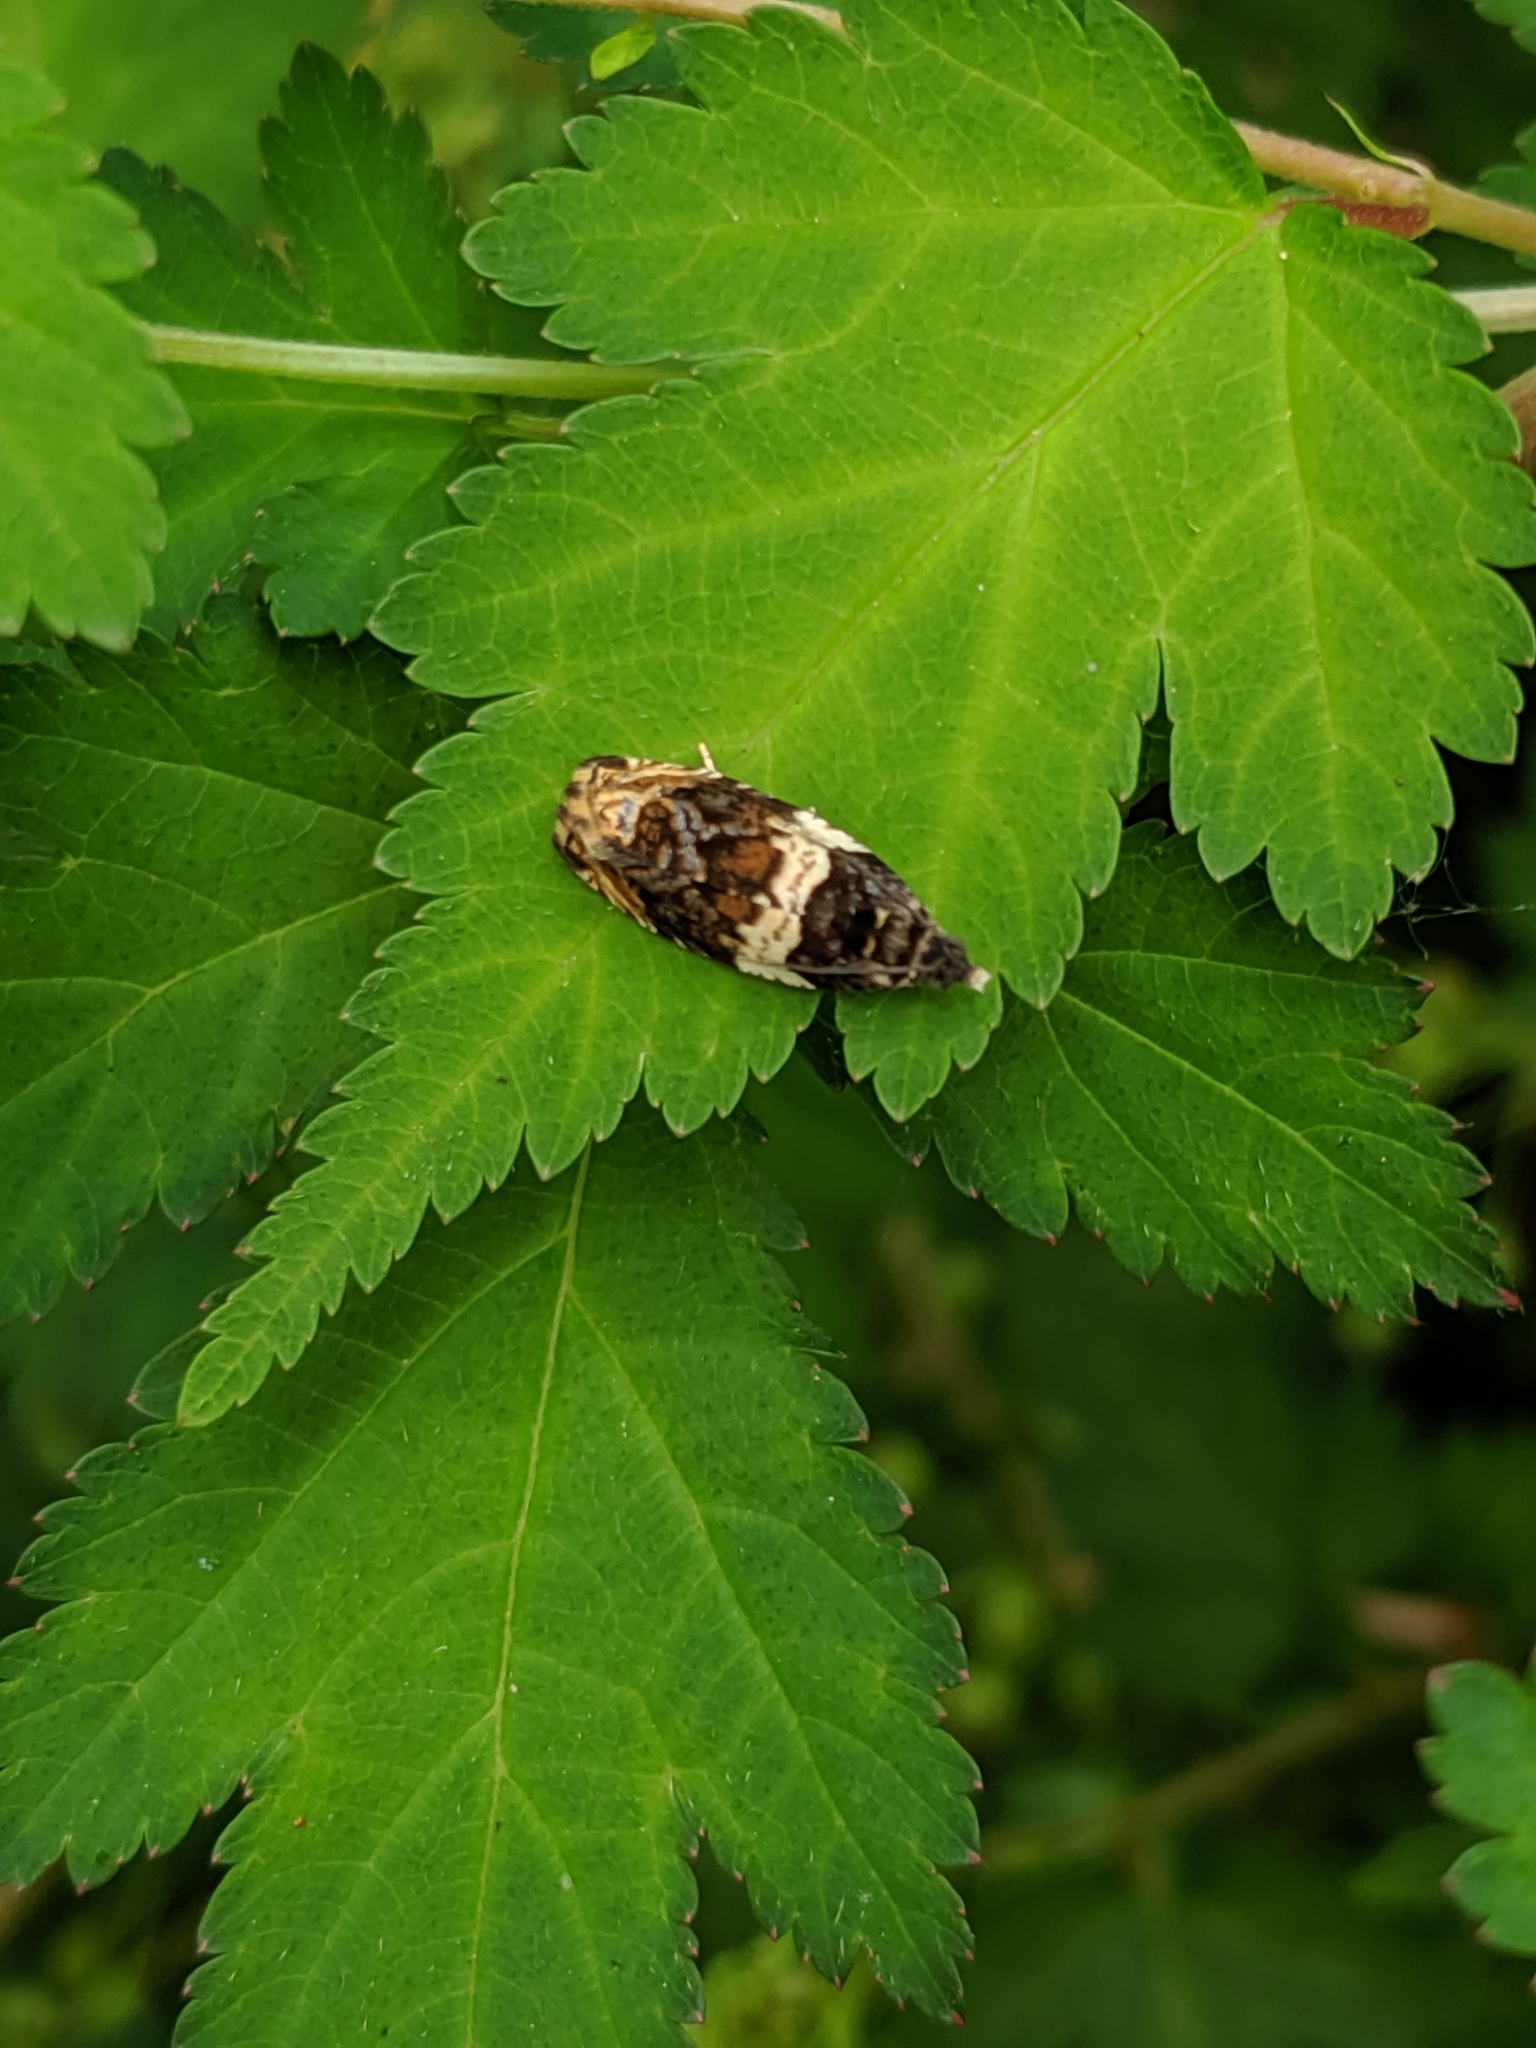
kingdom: Animalia
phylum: Arthropoda
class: Insecta
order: Lepidoptera
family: Tortricidae
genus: Olethreutes
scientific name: Olethreutes fasciatana
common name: Banded olethreutes moth
